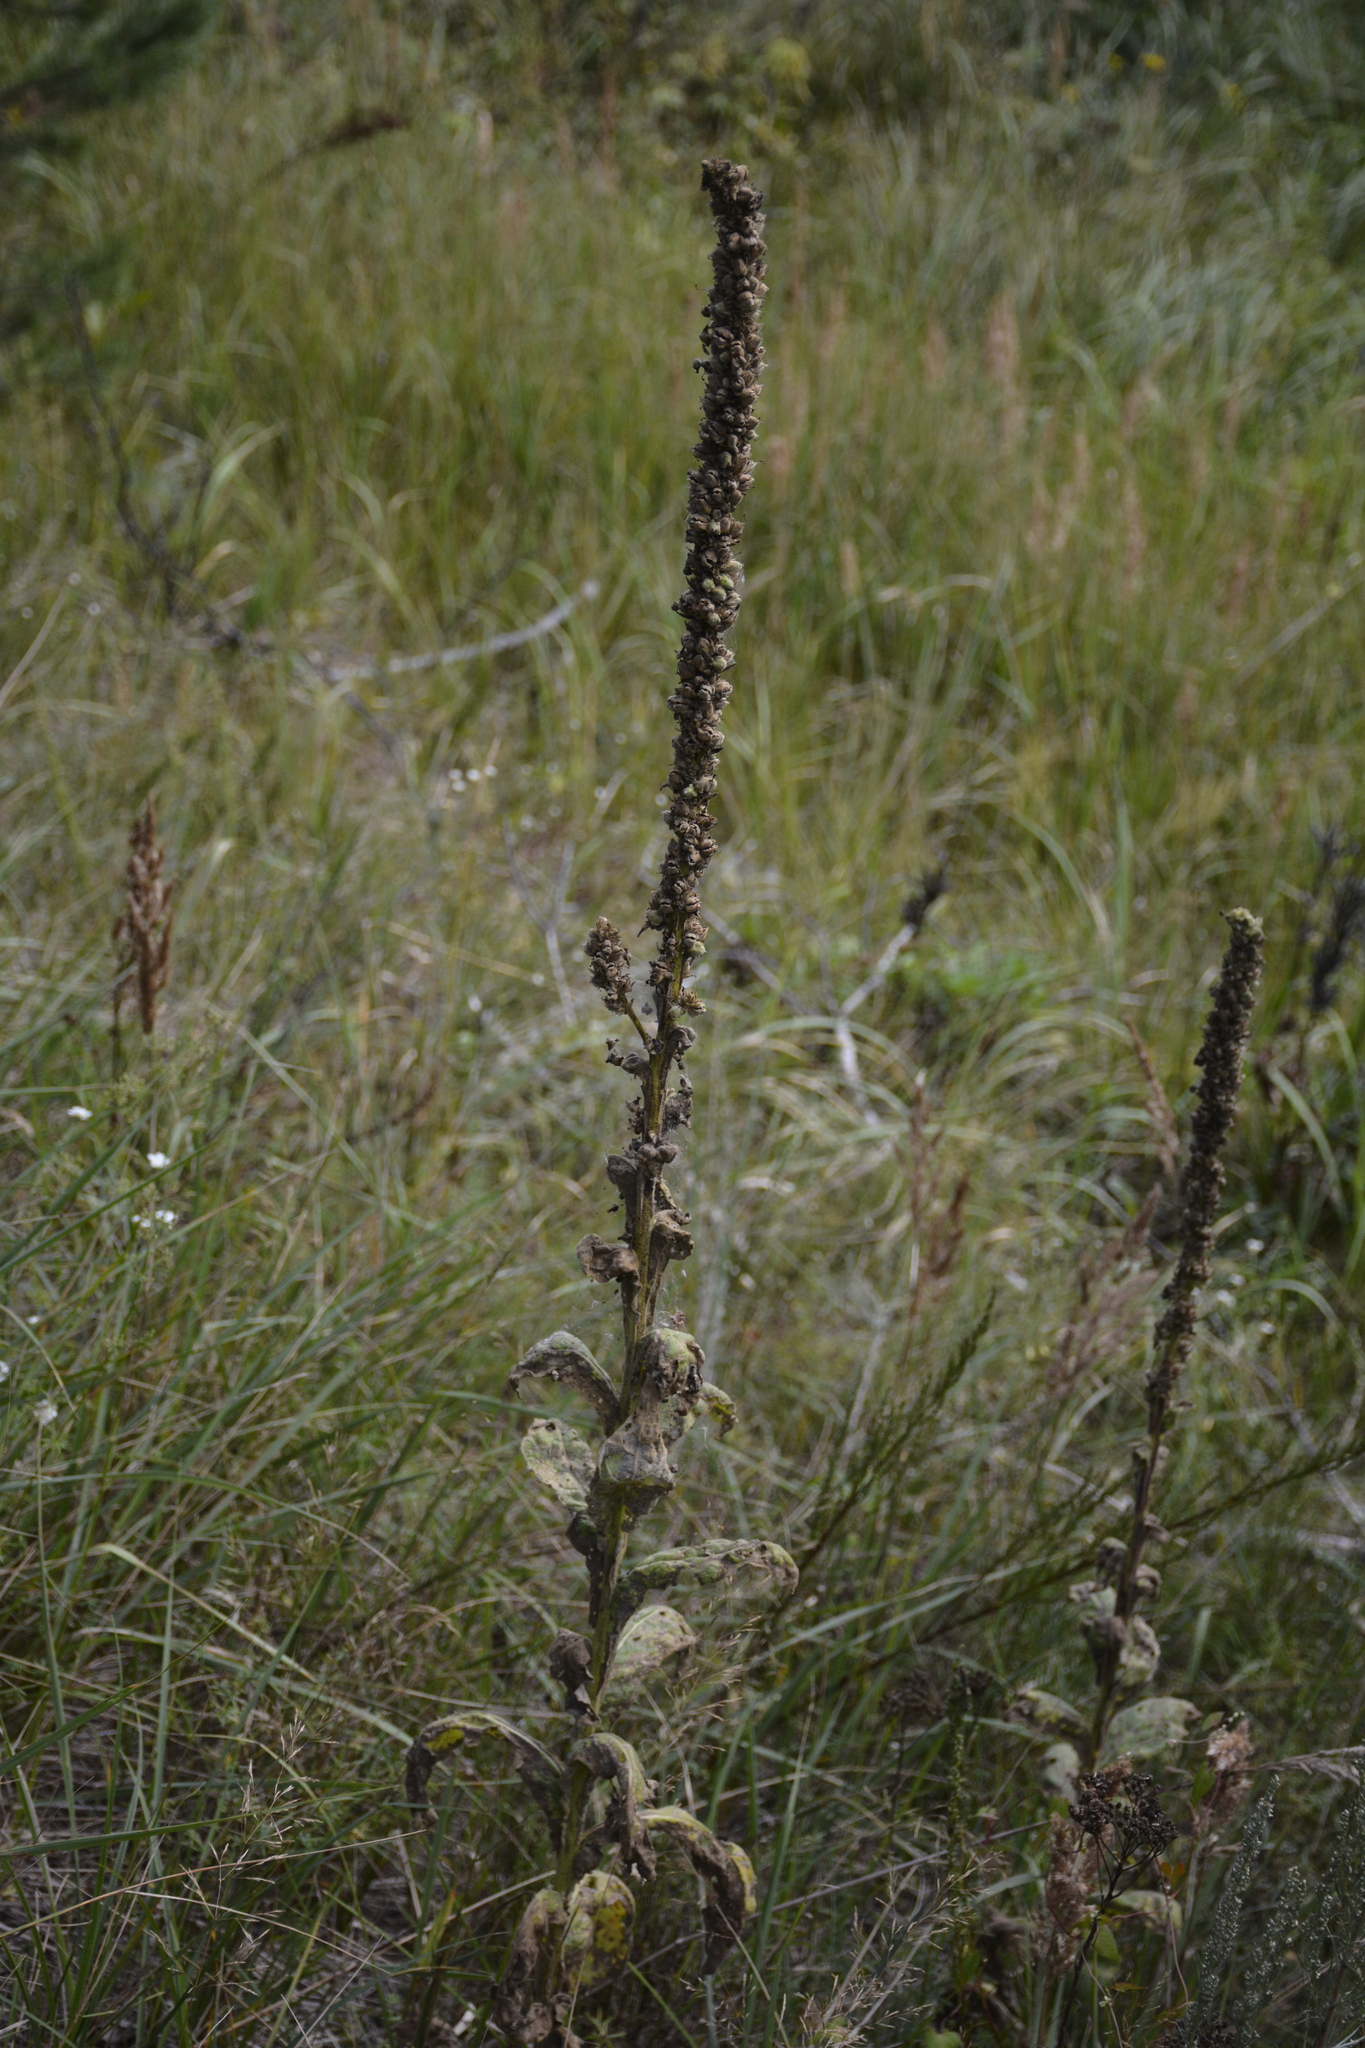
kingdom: Plantae
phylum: Tracheophyta
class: Magnoliopsida
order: Lamiales
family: Scrophulariaceae
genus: Verbascum
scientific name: Verbascum thapsus
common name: Common mullein
